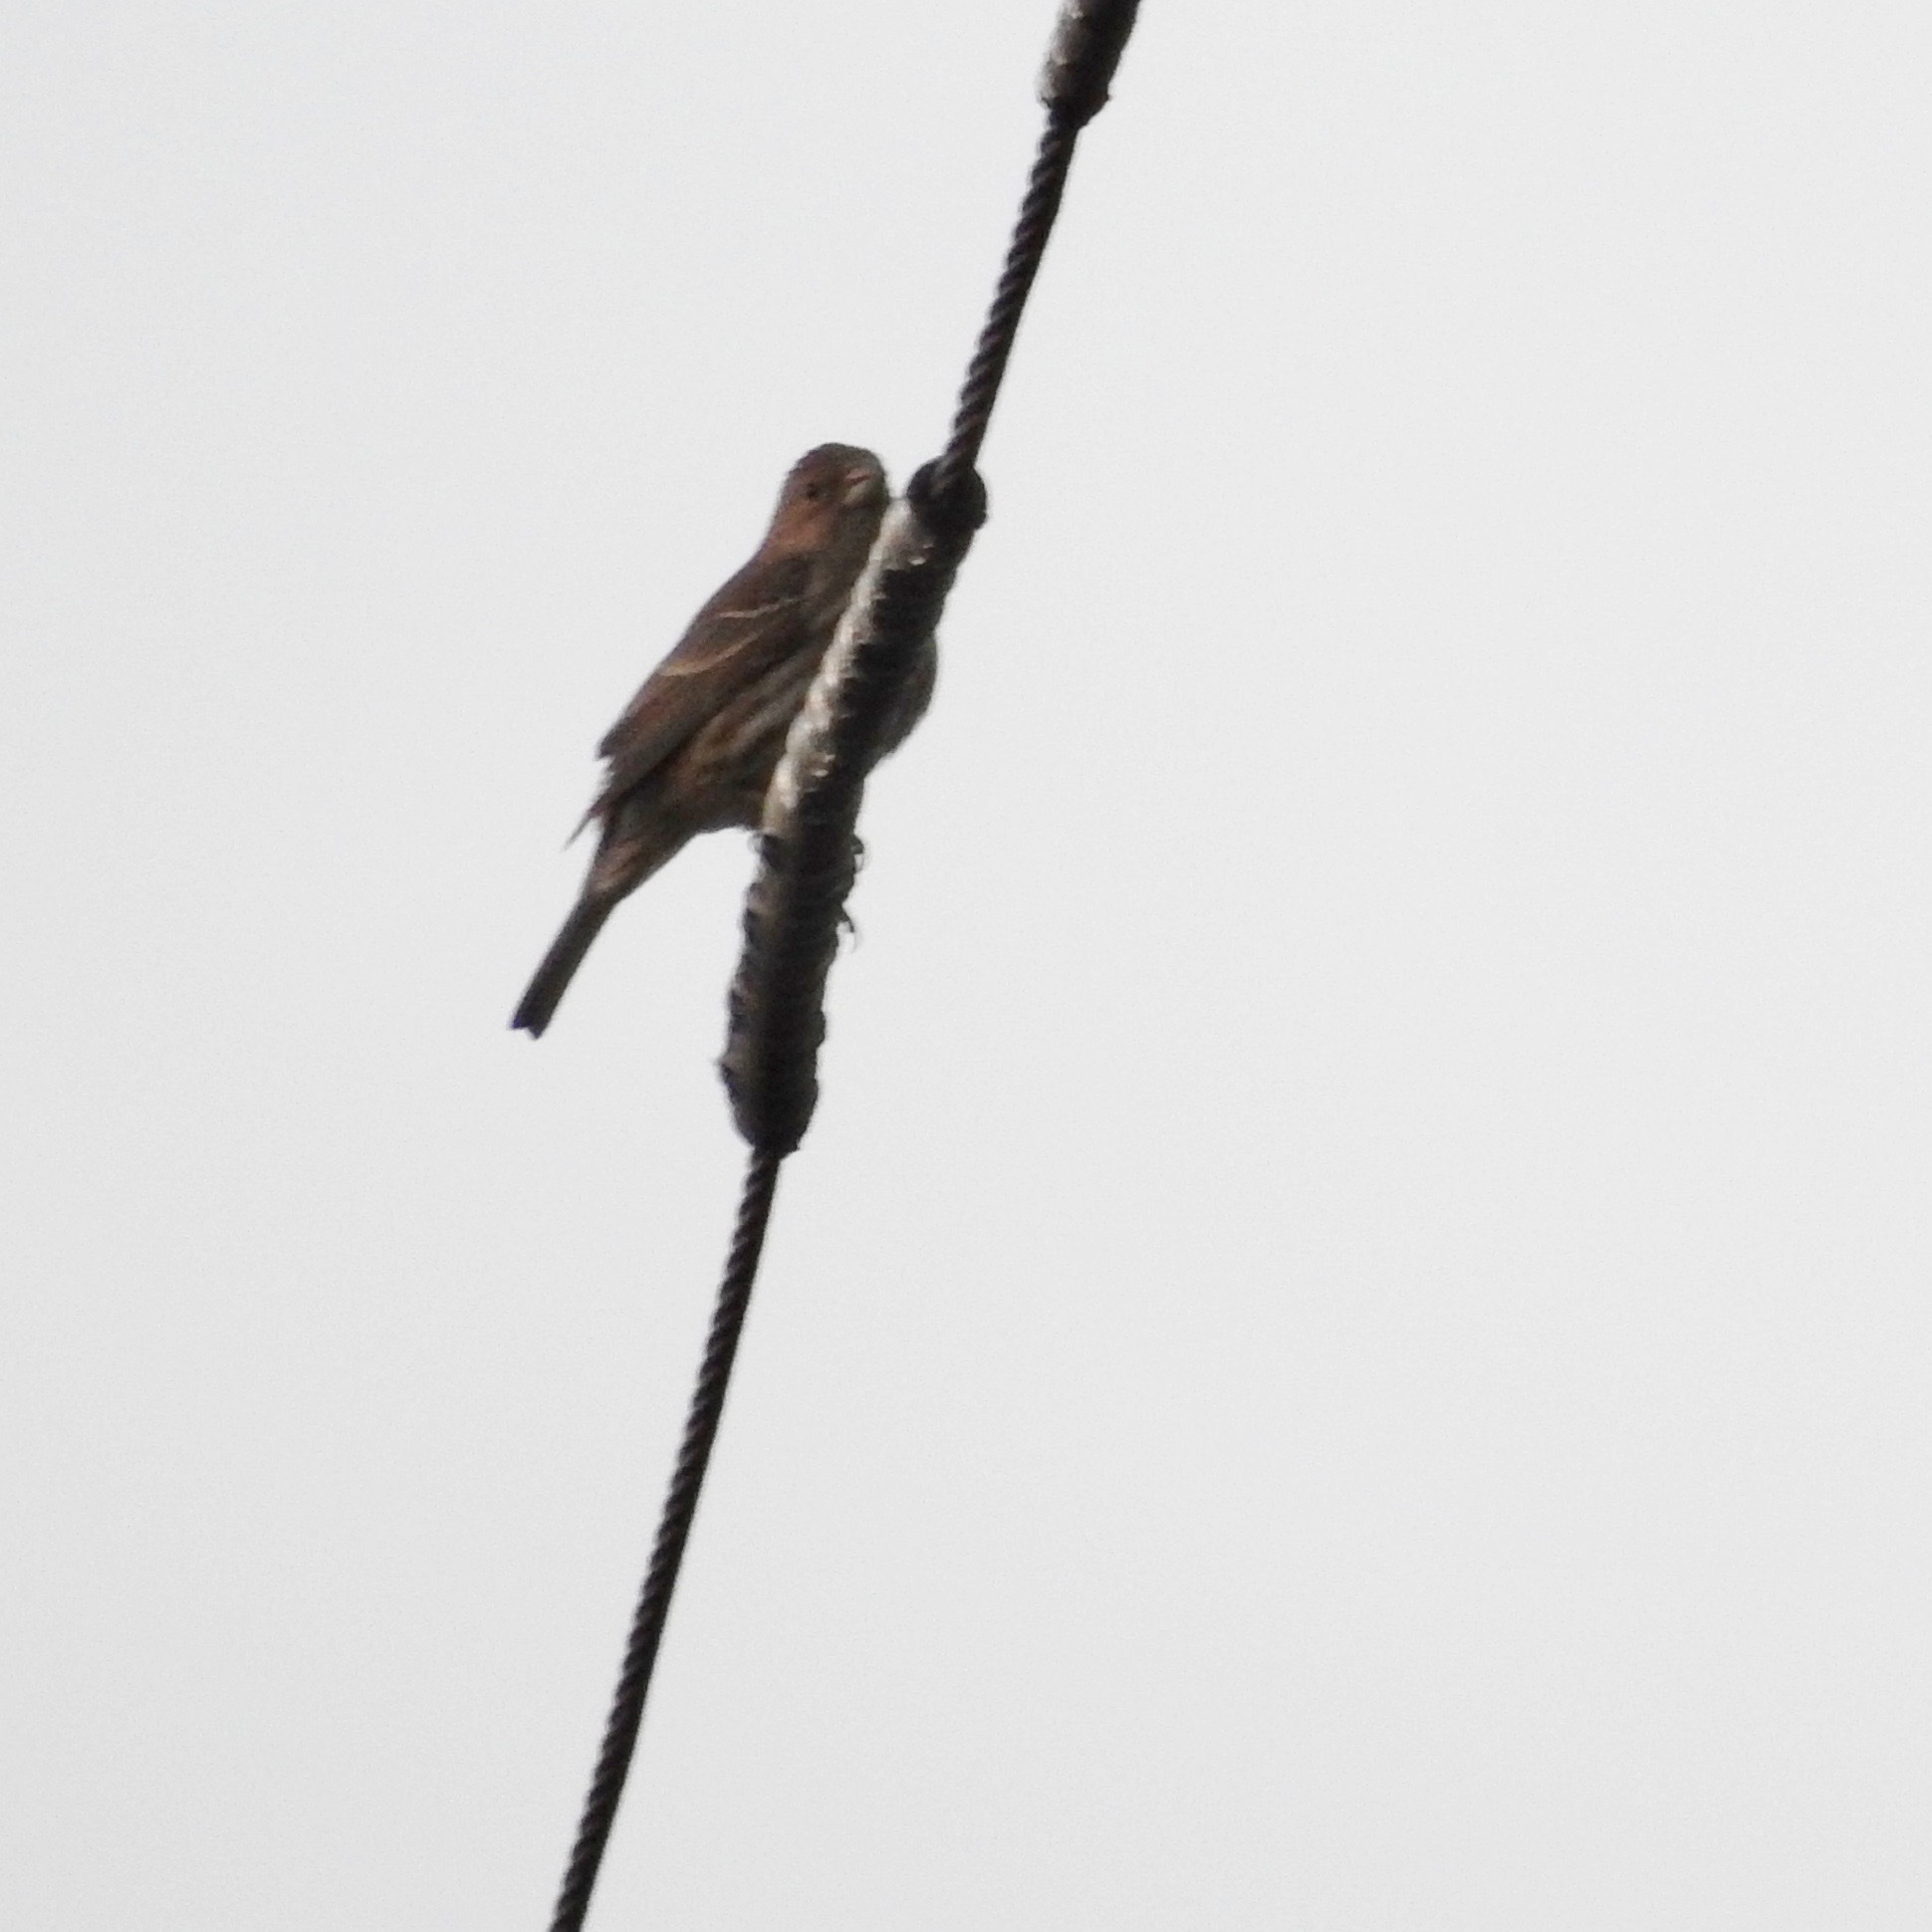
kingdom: Animalia
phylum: Chordata
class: Aves
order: Passeriformes
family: Fringillidae
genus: Haemorhous
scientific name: Haemorhous mexicanus
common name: House finch
